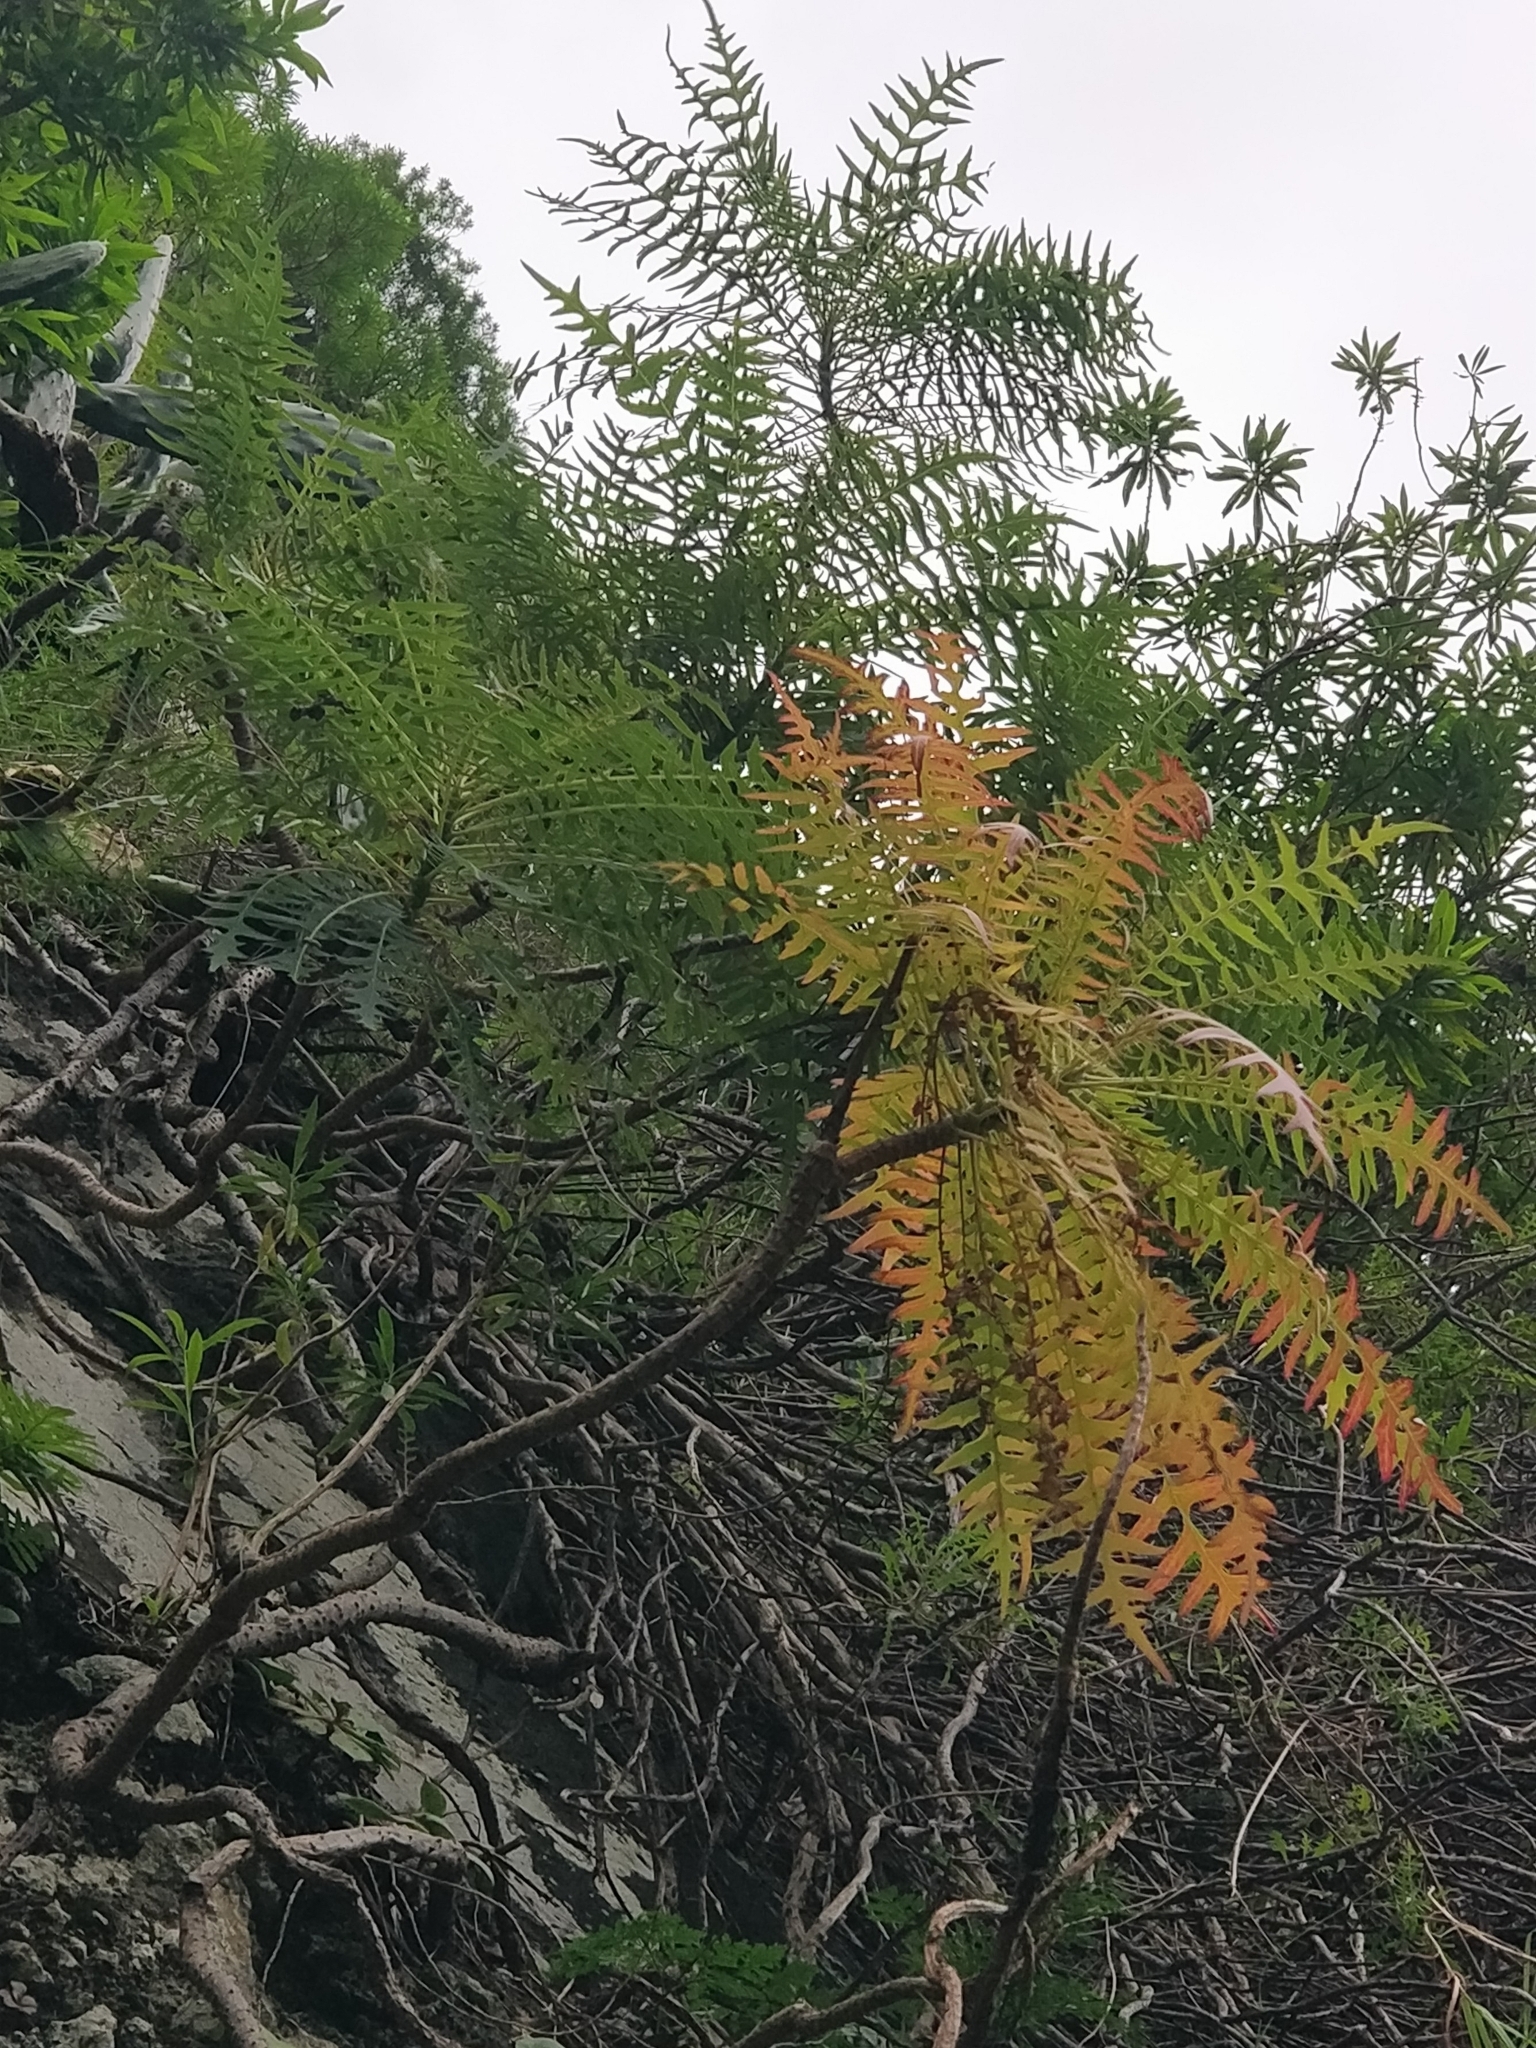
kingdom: Plantae
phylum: Tracheophyta
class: Magnoliopsida
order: Asterales
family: Asteraceae
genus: Sonchus
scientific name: Sonchus pinnatus
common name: Wing-leaved sow-thistle
